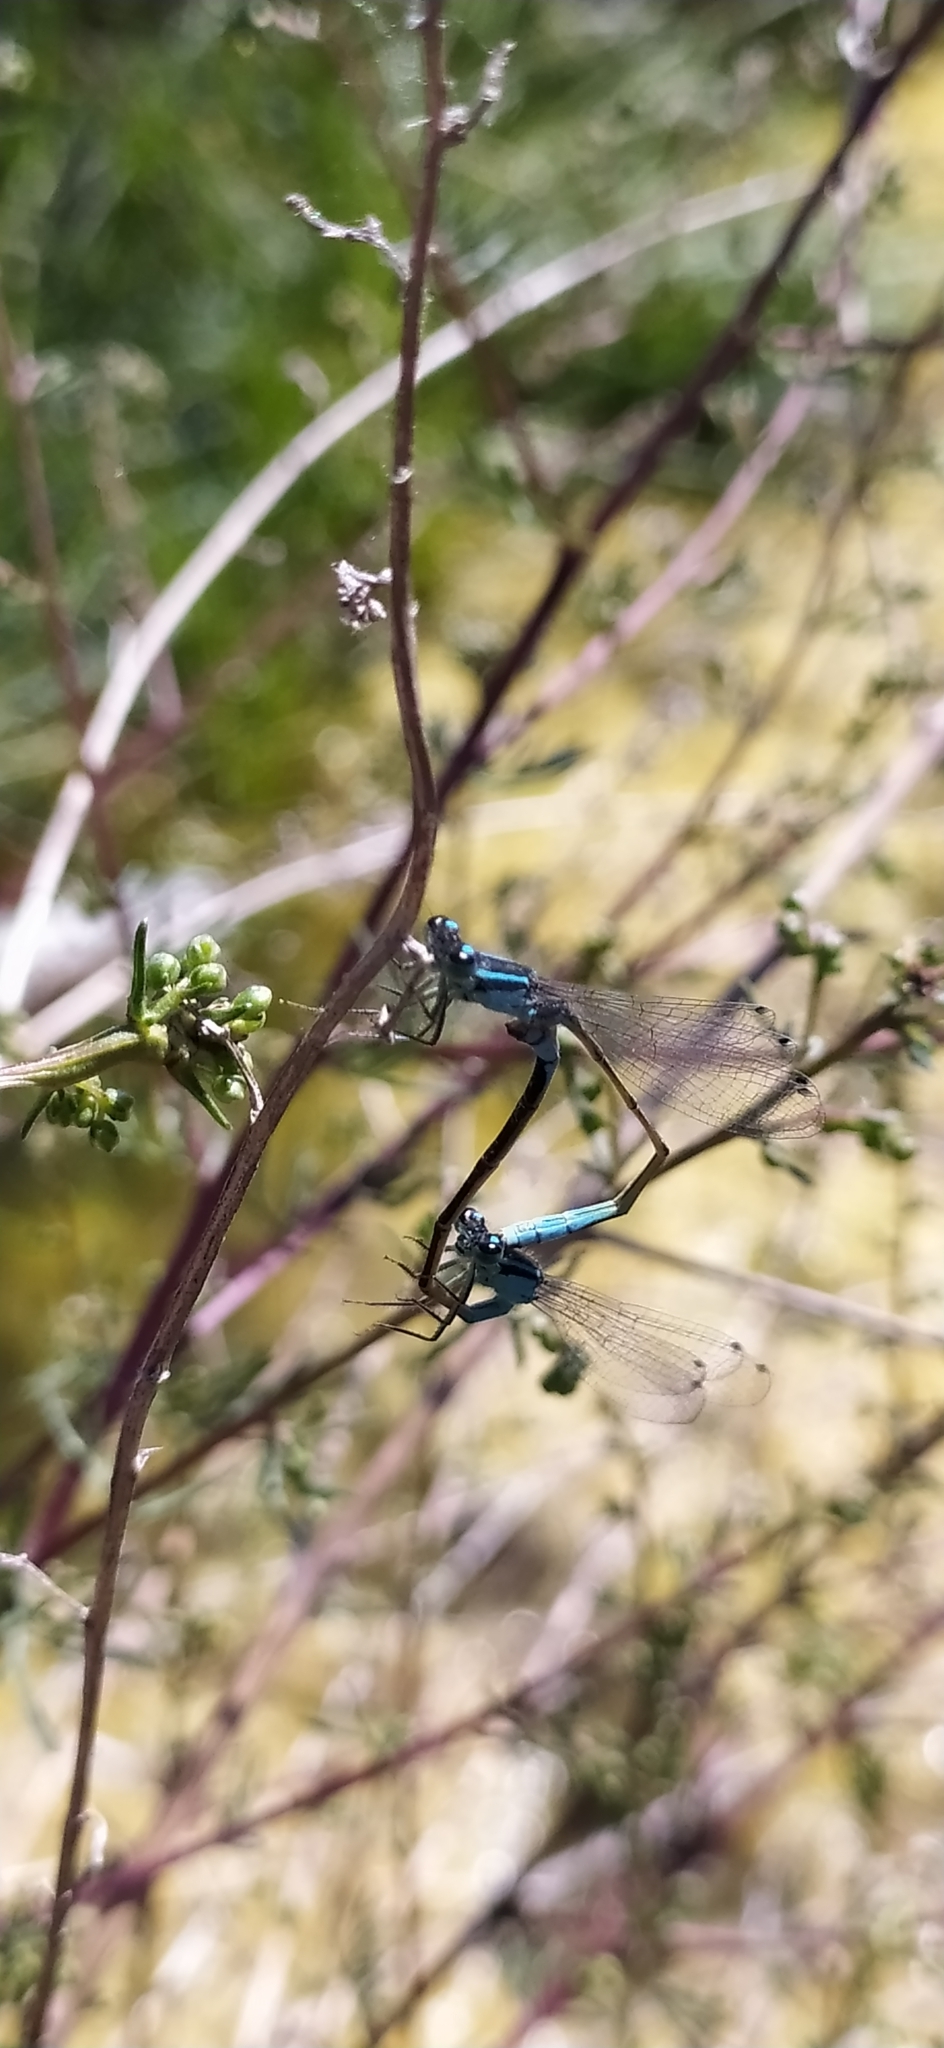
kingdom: Animalia
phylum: Arthropoda
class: Insecta
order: Odonata
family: Coenagrionidae
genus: Ischnura
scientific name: Ischnura elegans
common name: Blue-tailed damselfly
